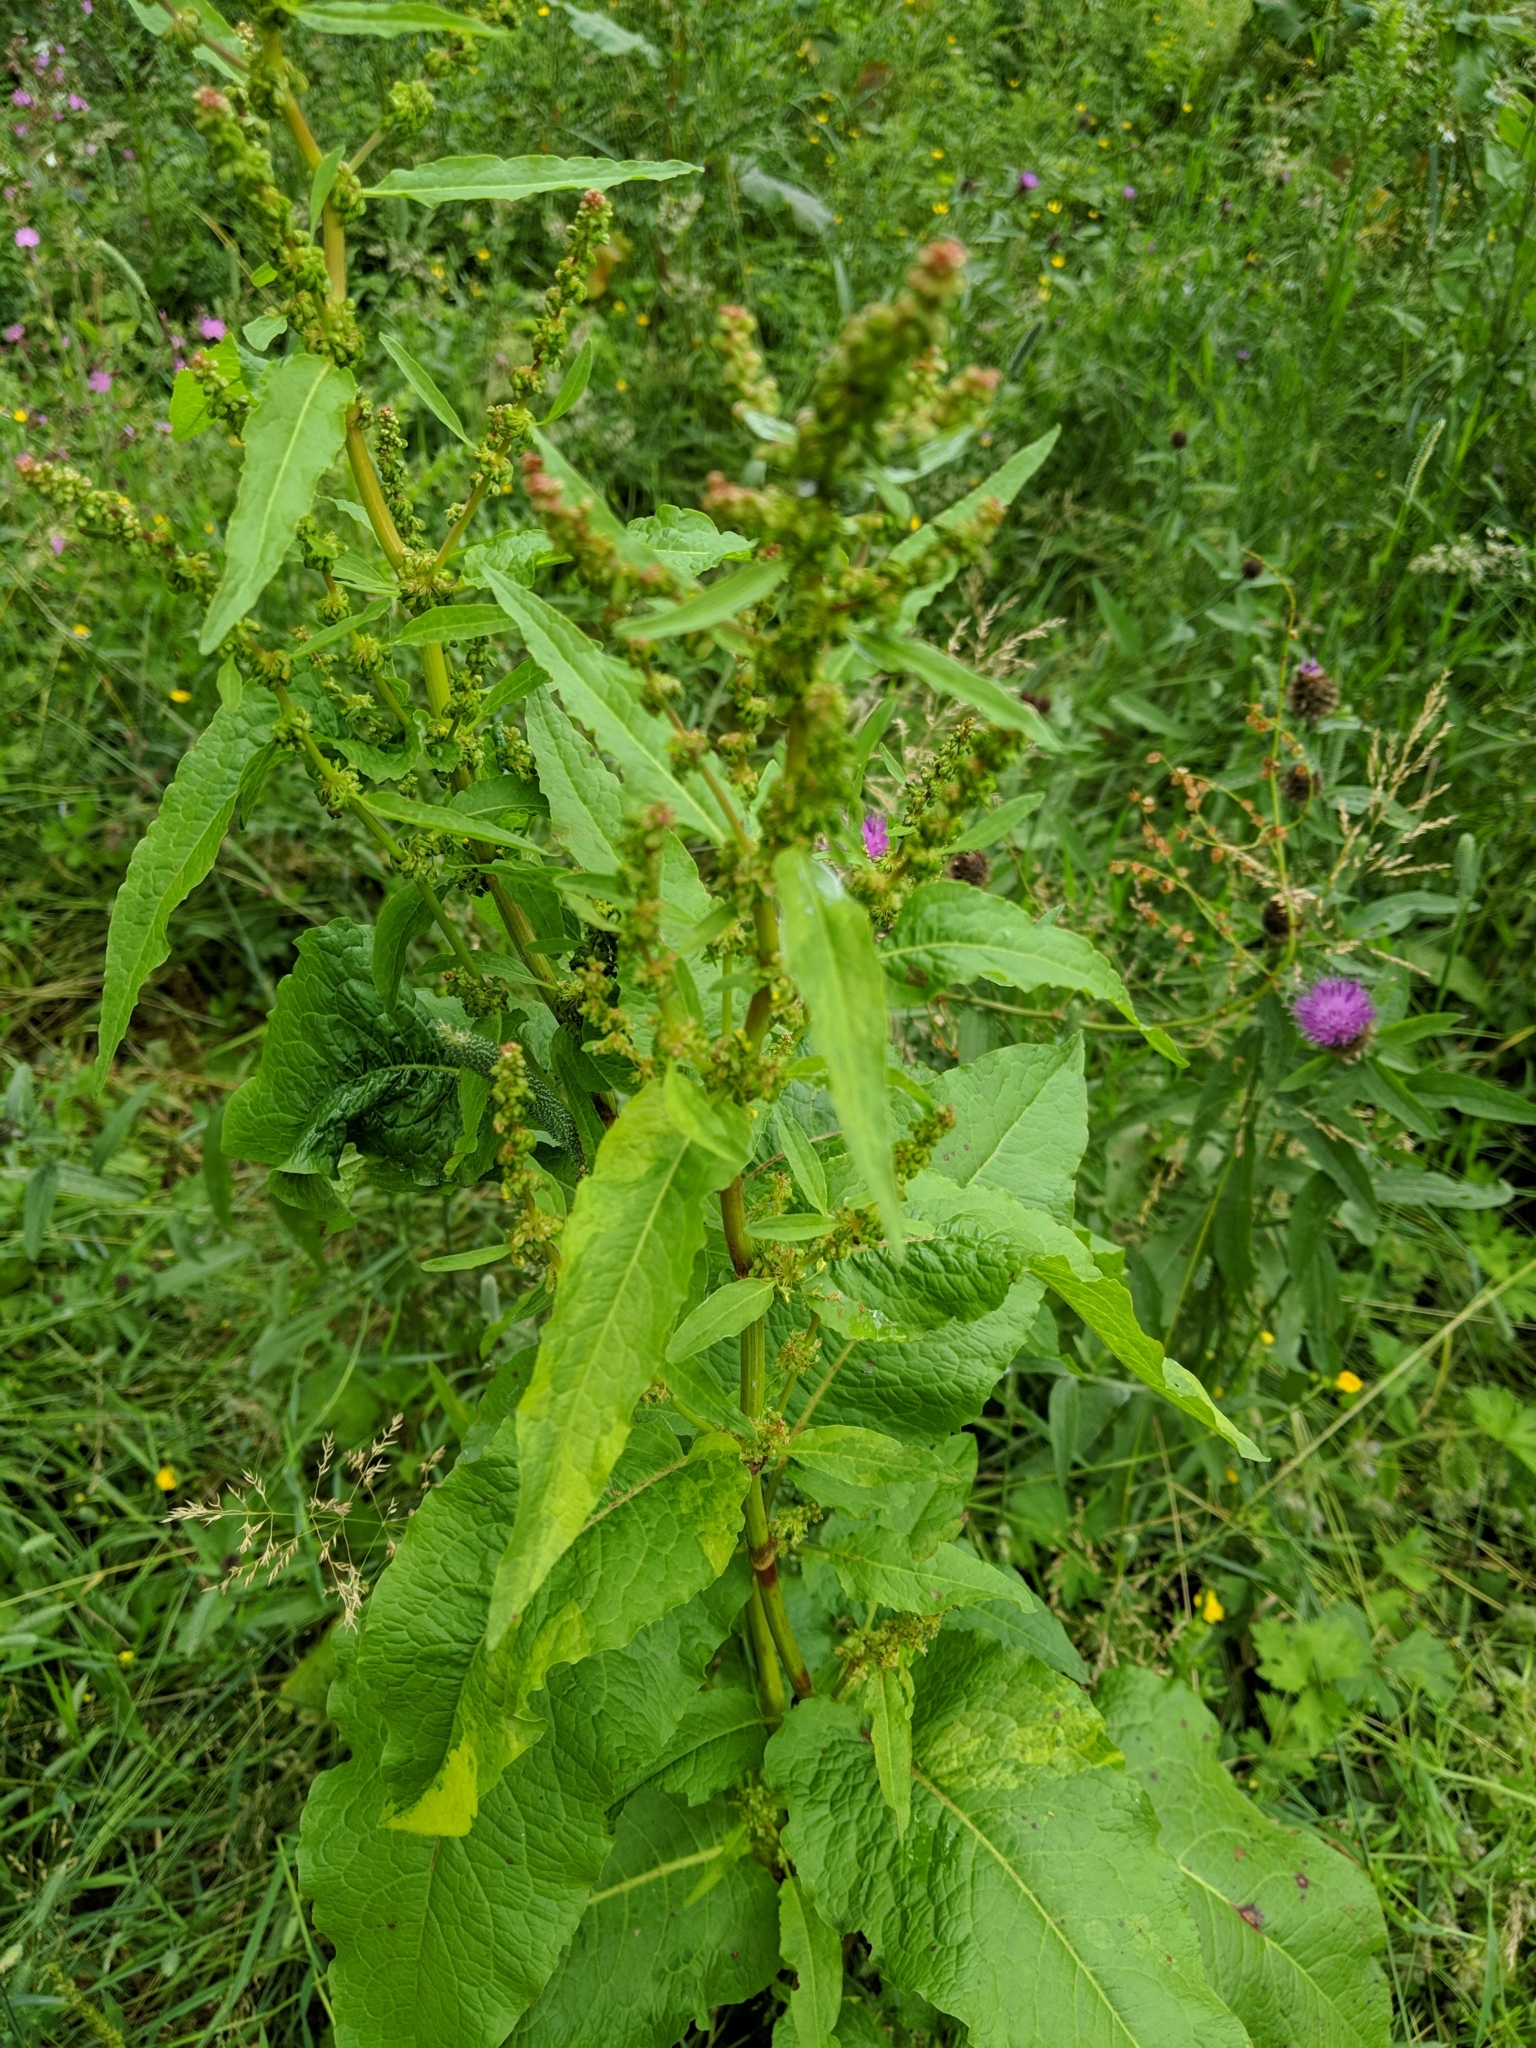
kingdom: Plantae
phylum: Tracheophyta
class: Magnoliopsida
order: Caryophyllales
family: Polygonaceae
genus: Rumex
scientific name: Rumex obtusifolius
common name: Bitter dock
